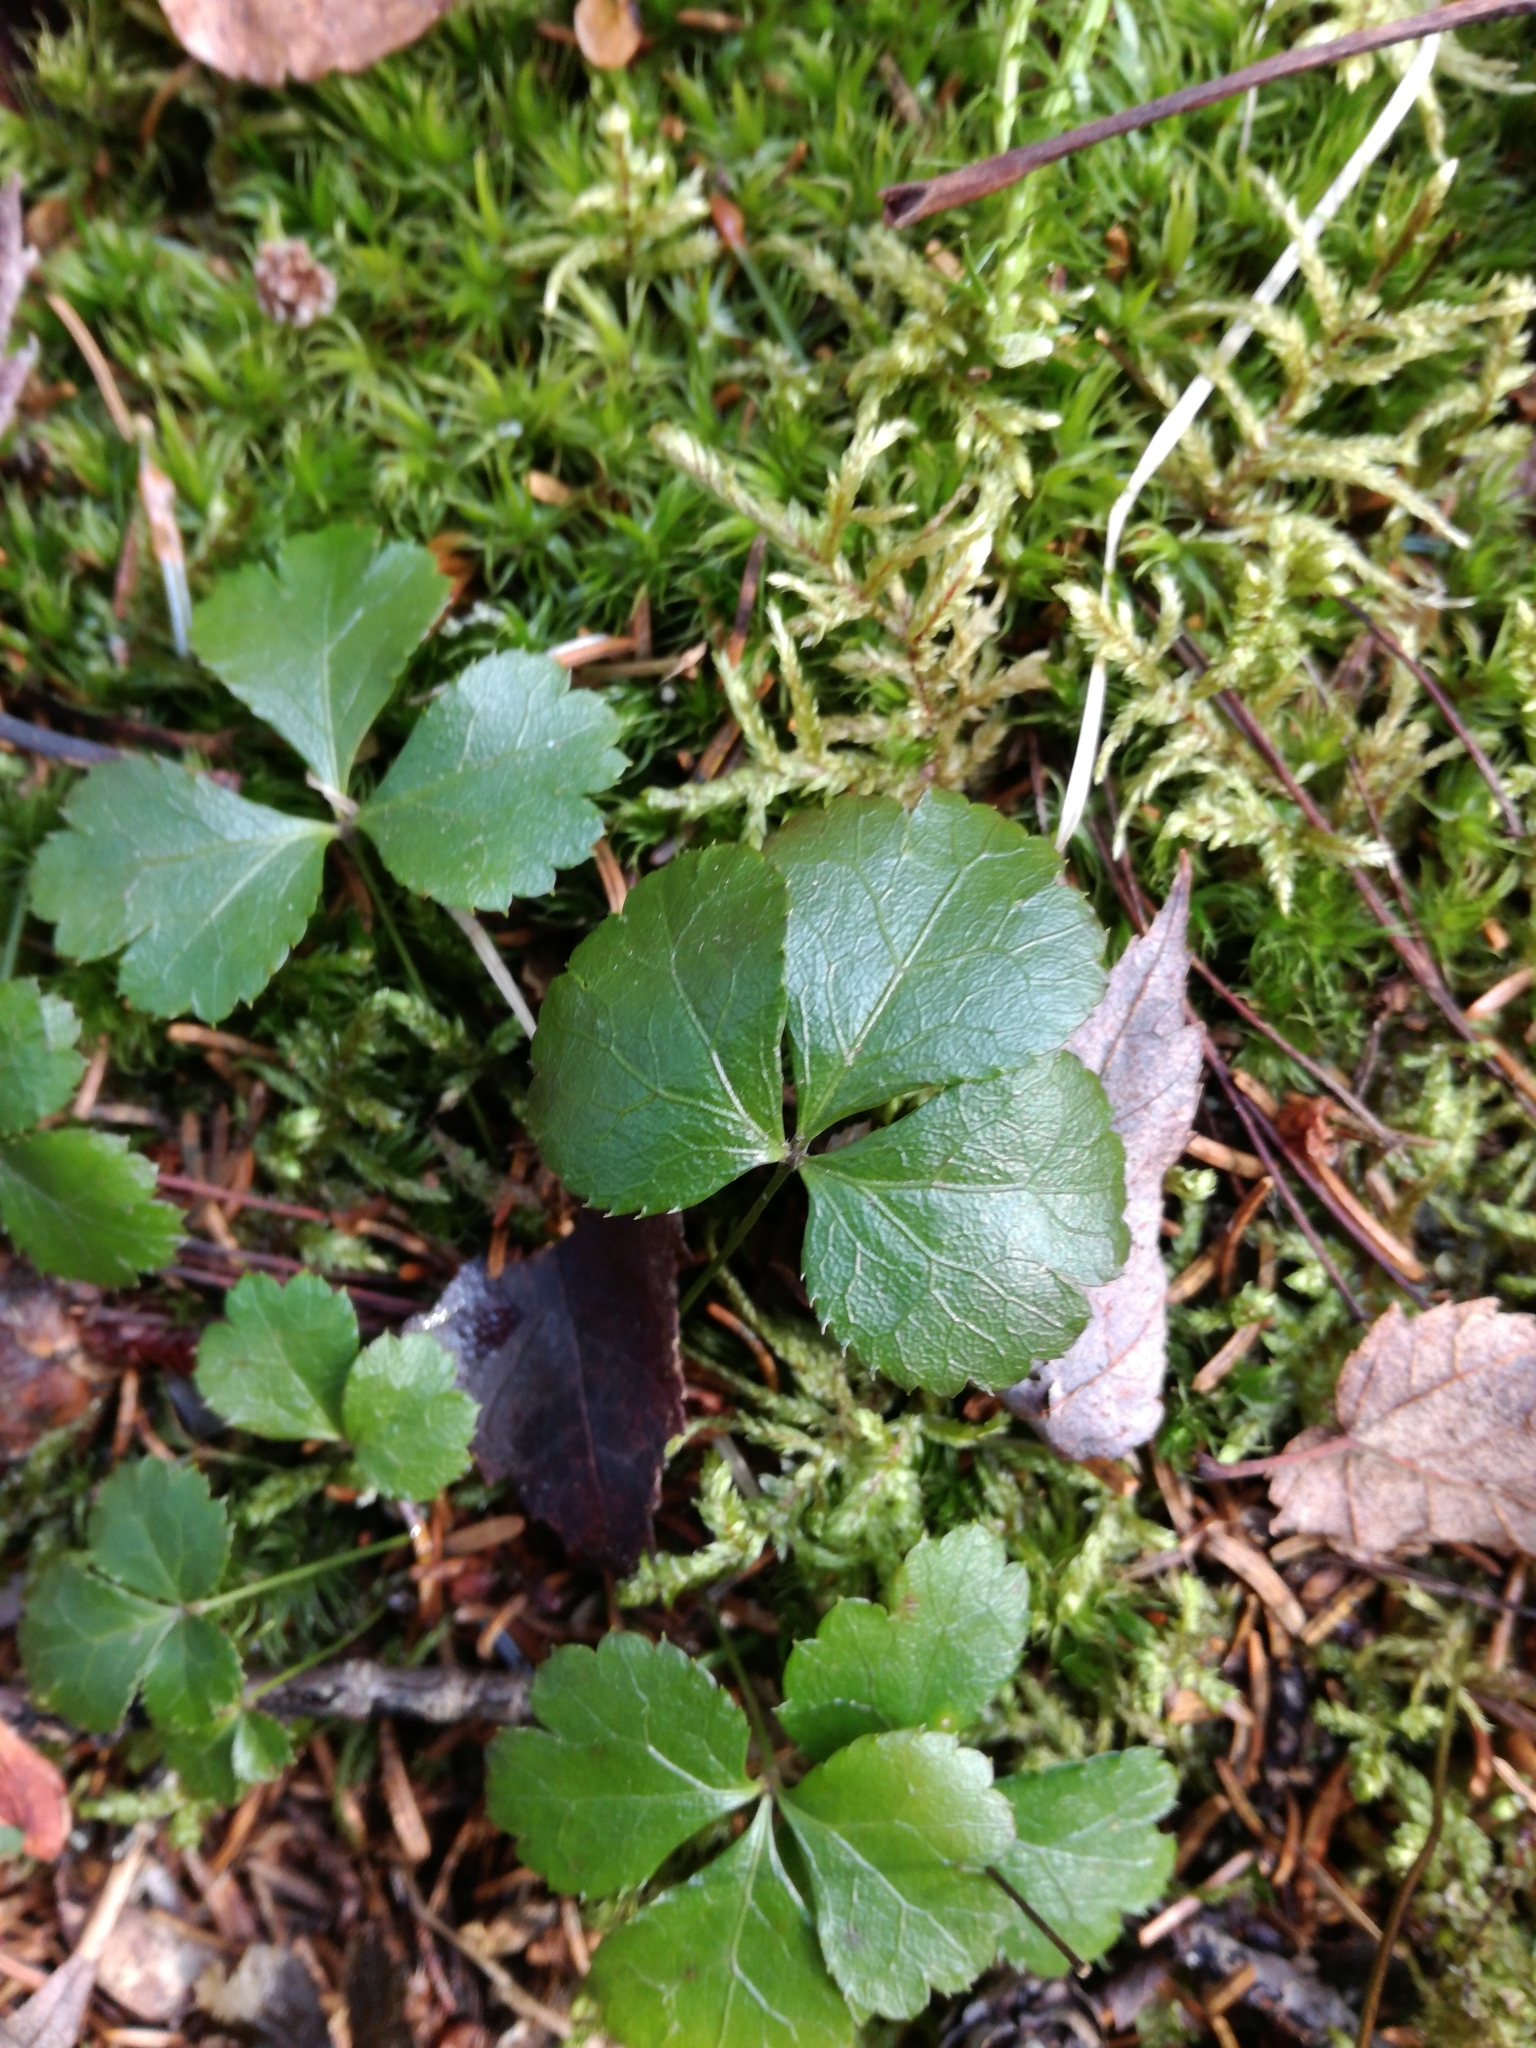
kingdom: Plantae
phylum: Tracheophyta
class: Magnoliopsida
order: Ranunculales
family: Ranunculaceae
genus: Coptis
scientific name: Coptis trifolia
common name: Canker-root
